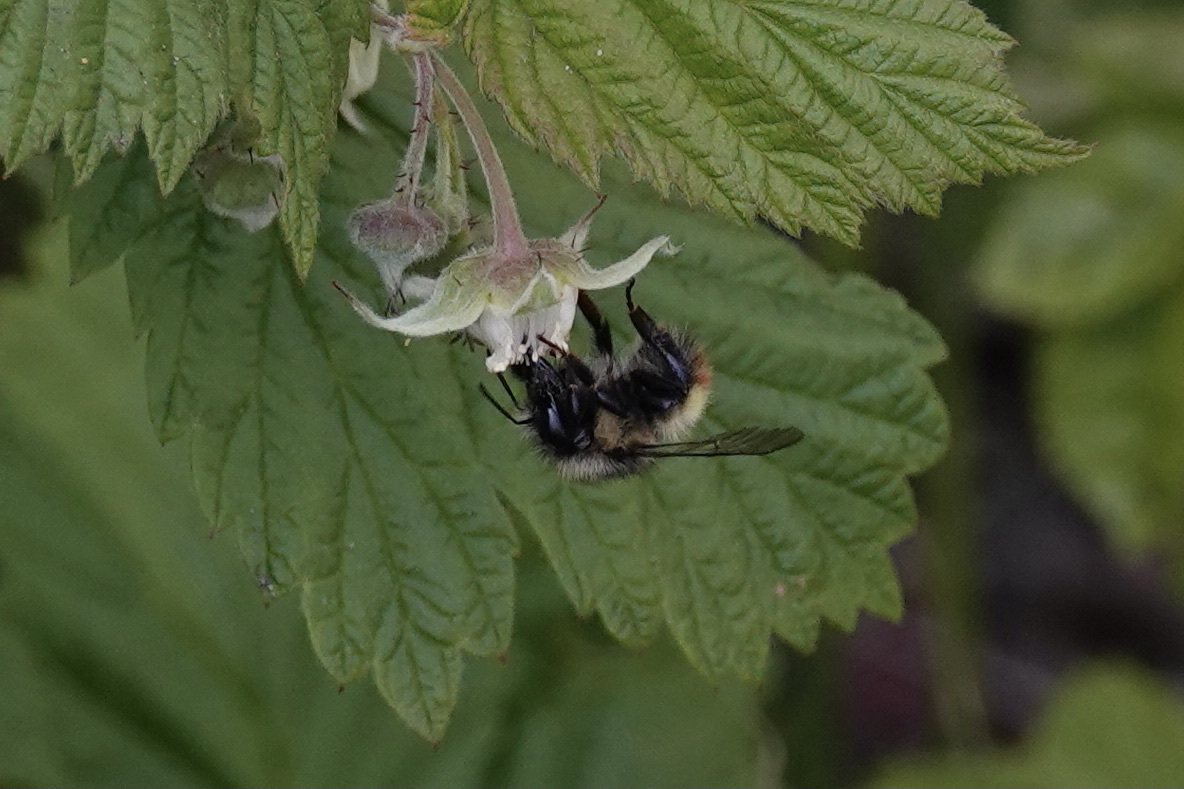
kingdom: Animalia
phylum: Arthropoda
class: Insecta
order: Hymenoptera
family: Apidae
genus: Bombus
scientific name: Bombus flavifrons
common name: Yellow head bumble bee
